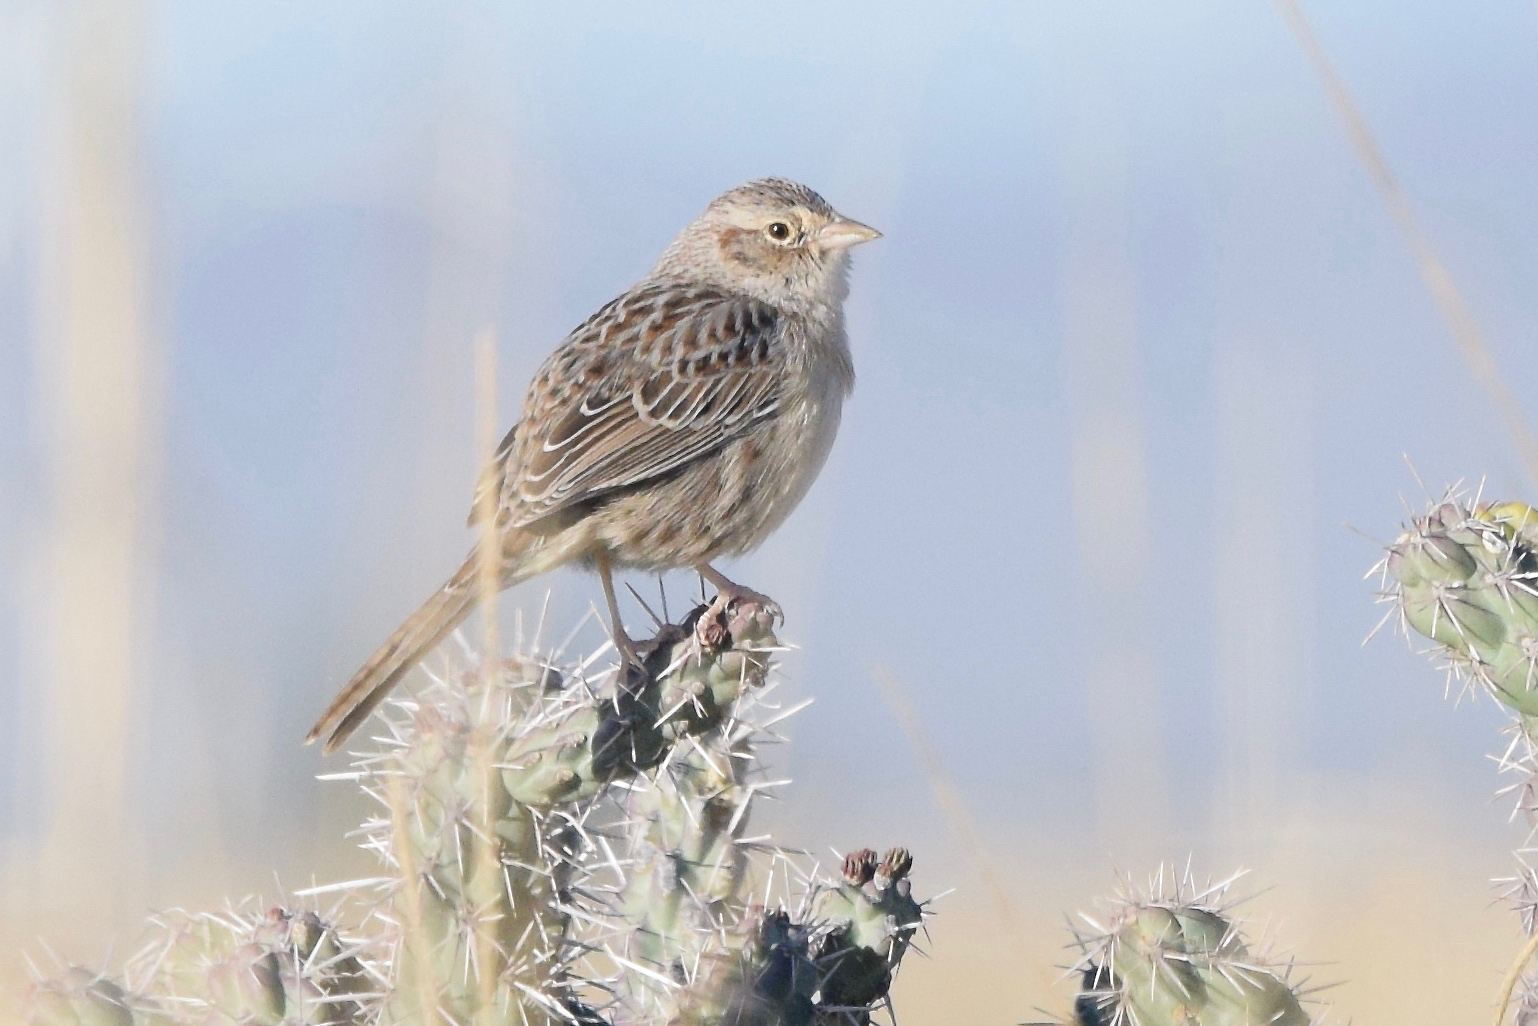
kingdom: Animalia
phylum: Chordata
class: Aves
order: Passeriformes
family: Passerellidae
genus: Peucaea
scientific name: Peucaea cassinii
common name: Cassin's sparrow
